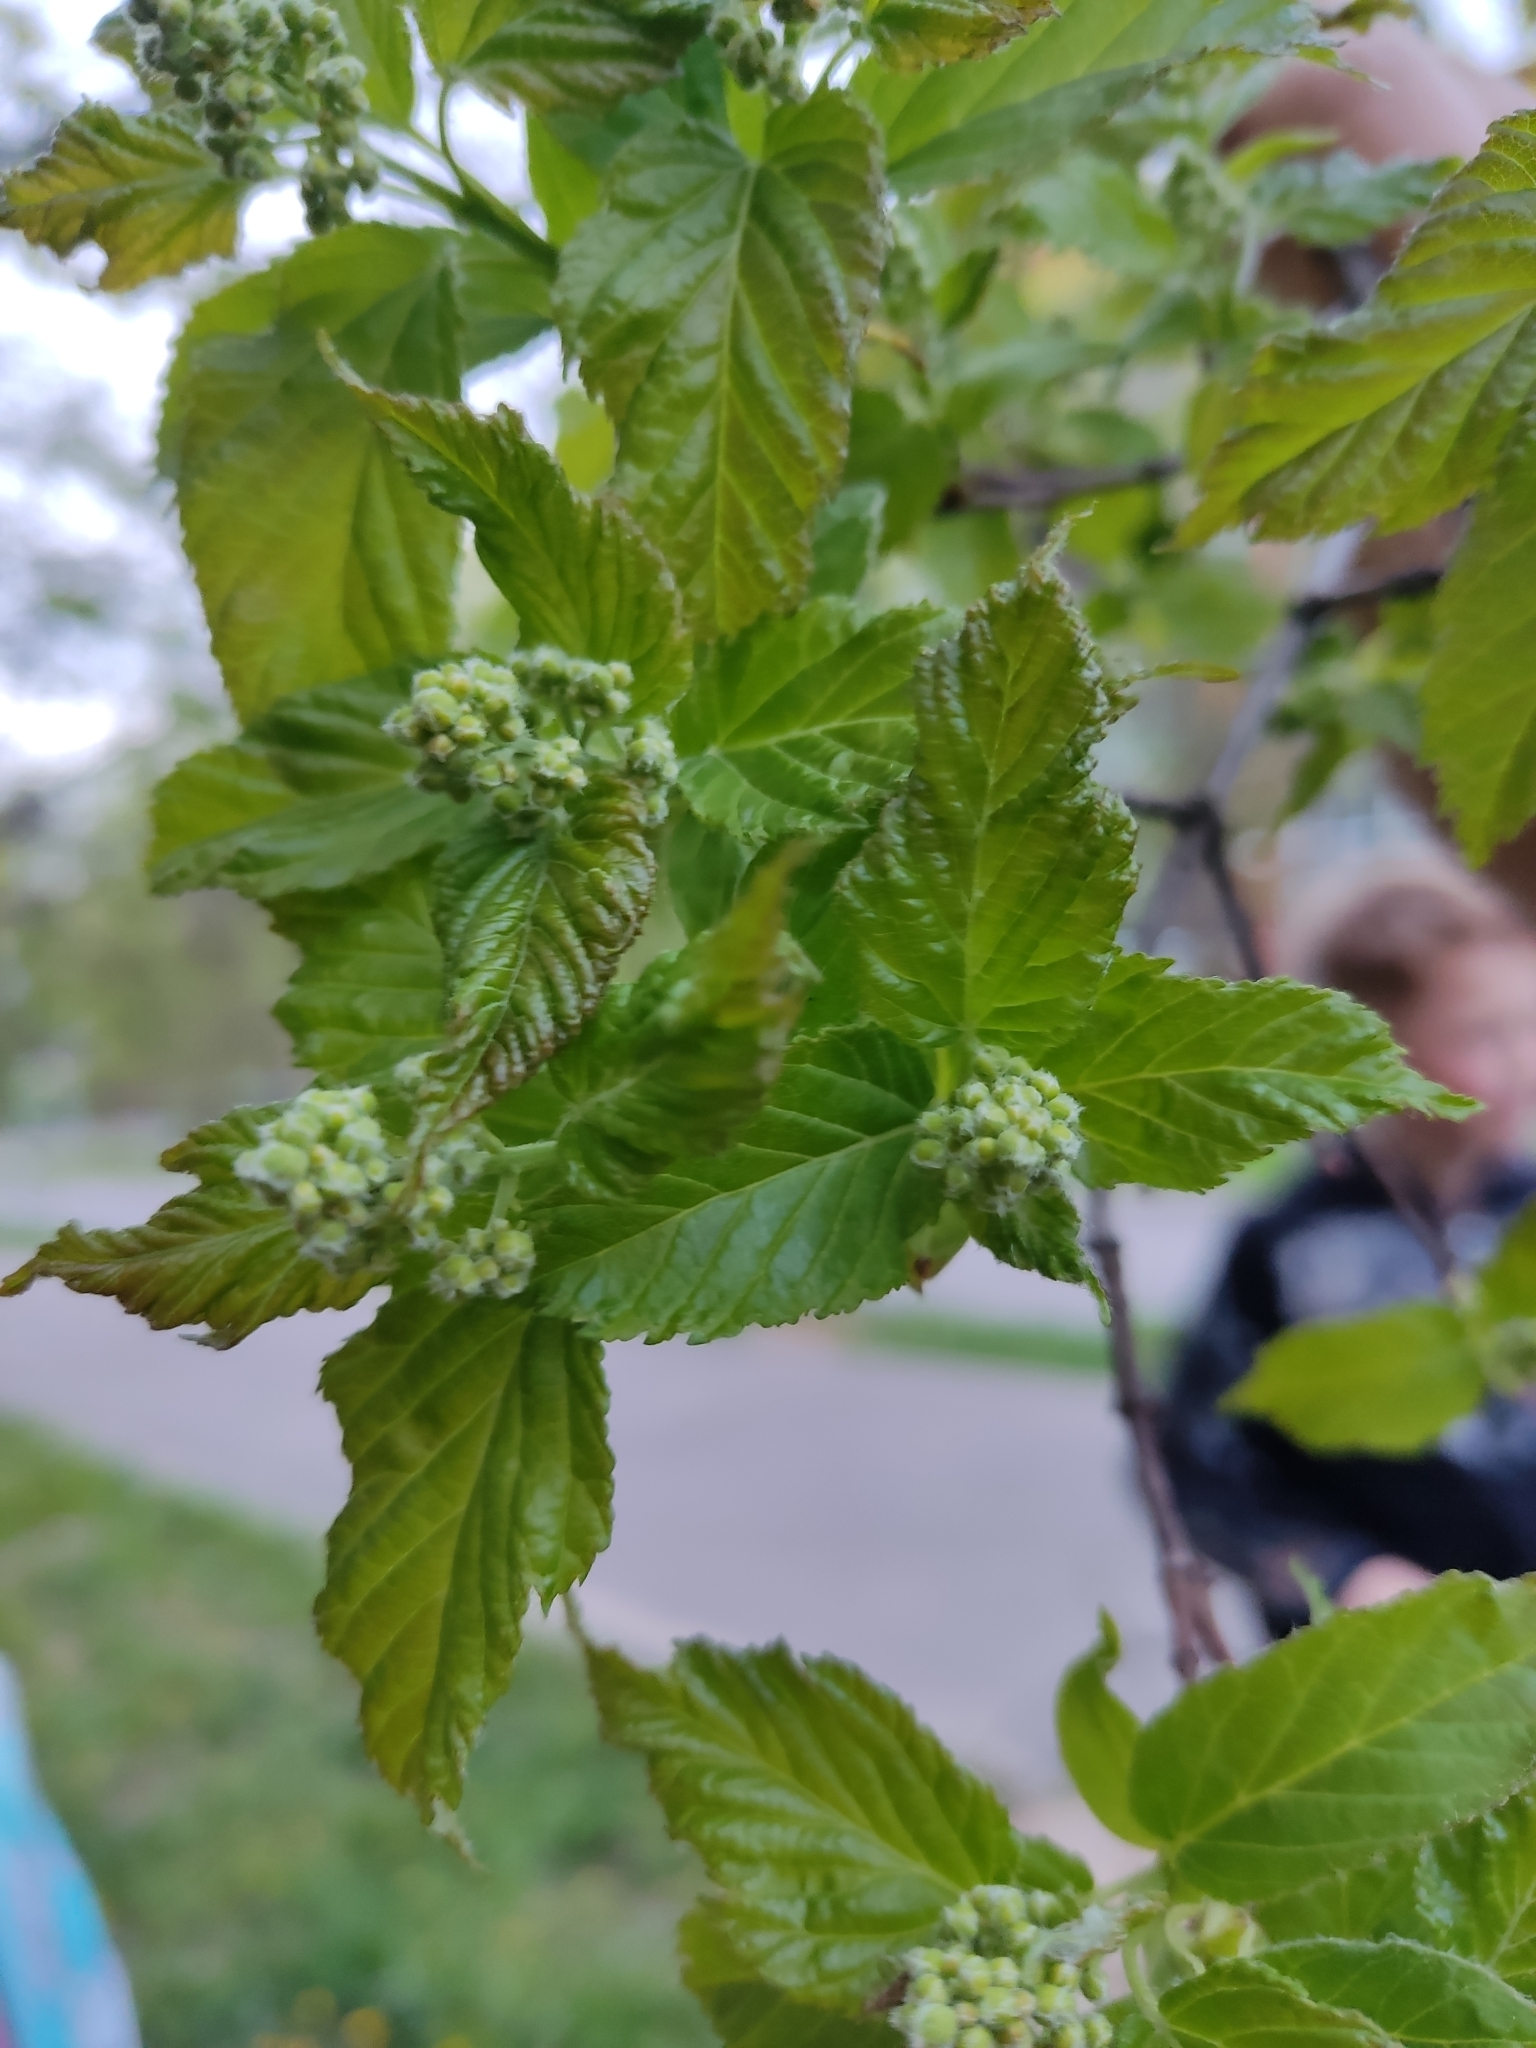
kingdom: Plantae
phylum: Tracheophyta
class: Magnoliopsida
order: Sapindales
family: Sapindaceae
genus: Acer
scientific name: Acer tataricum
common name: Tartar maple
